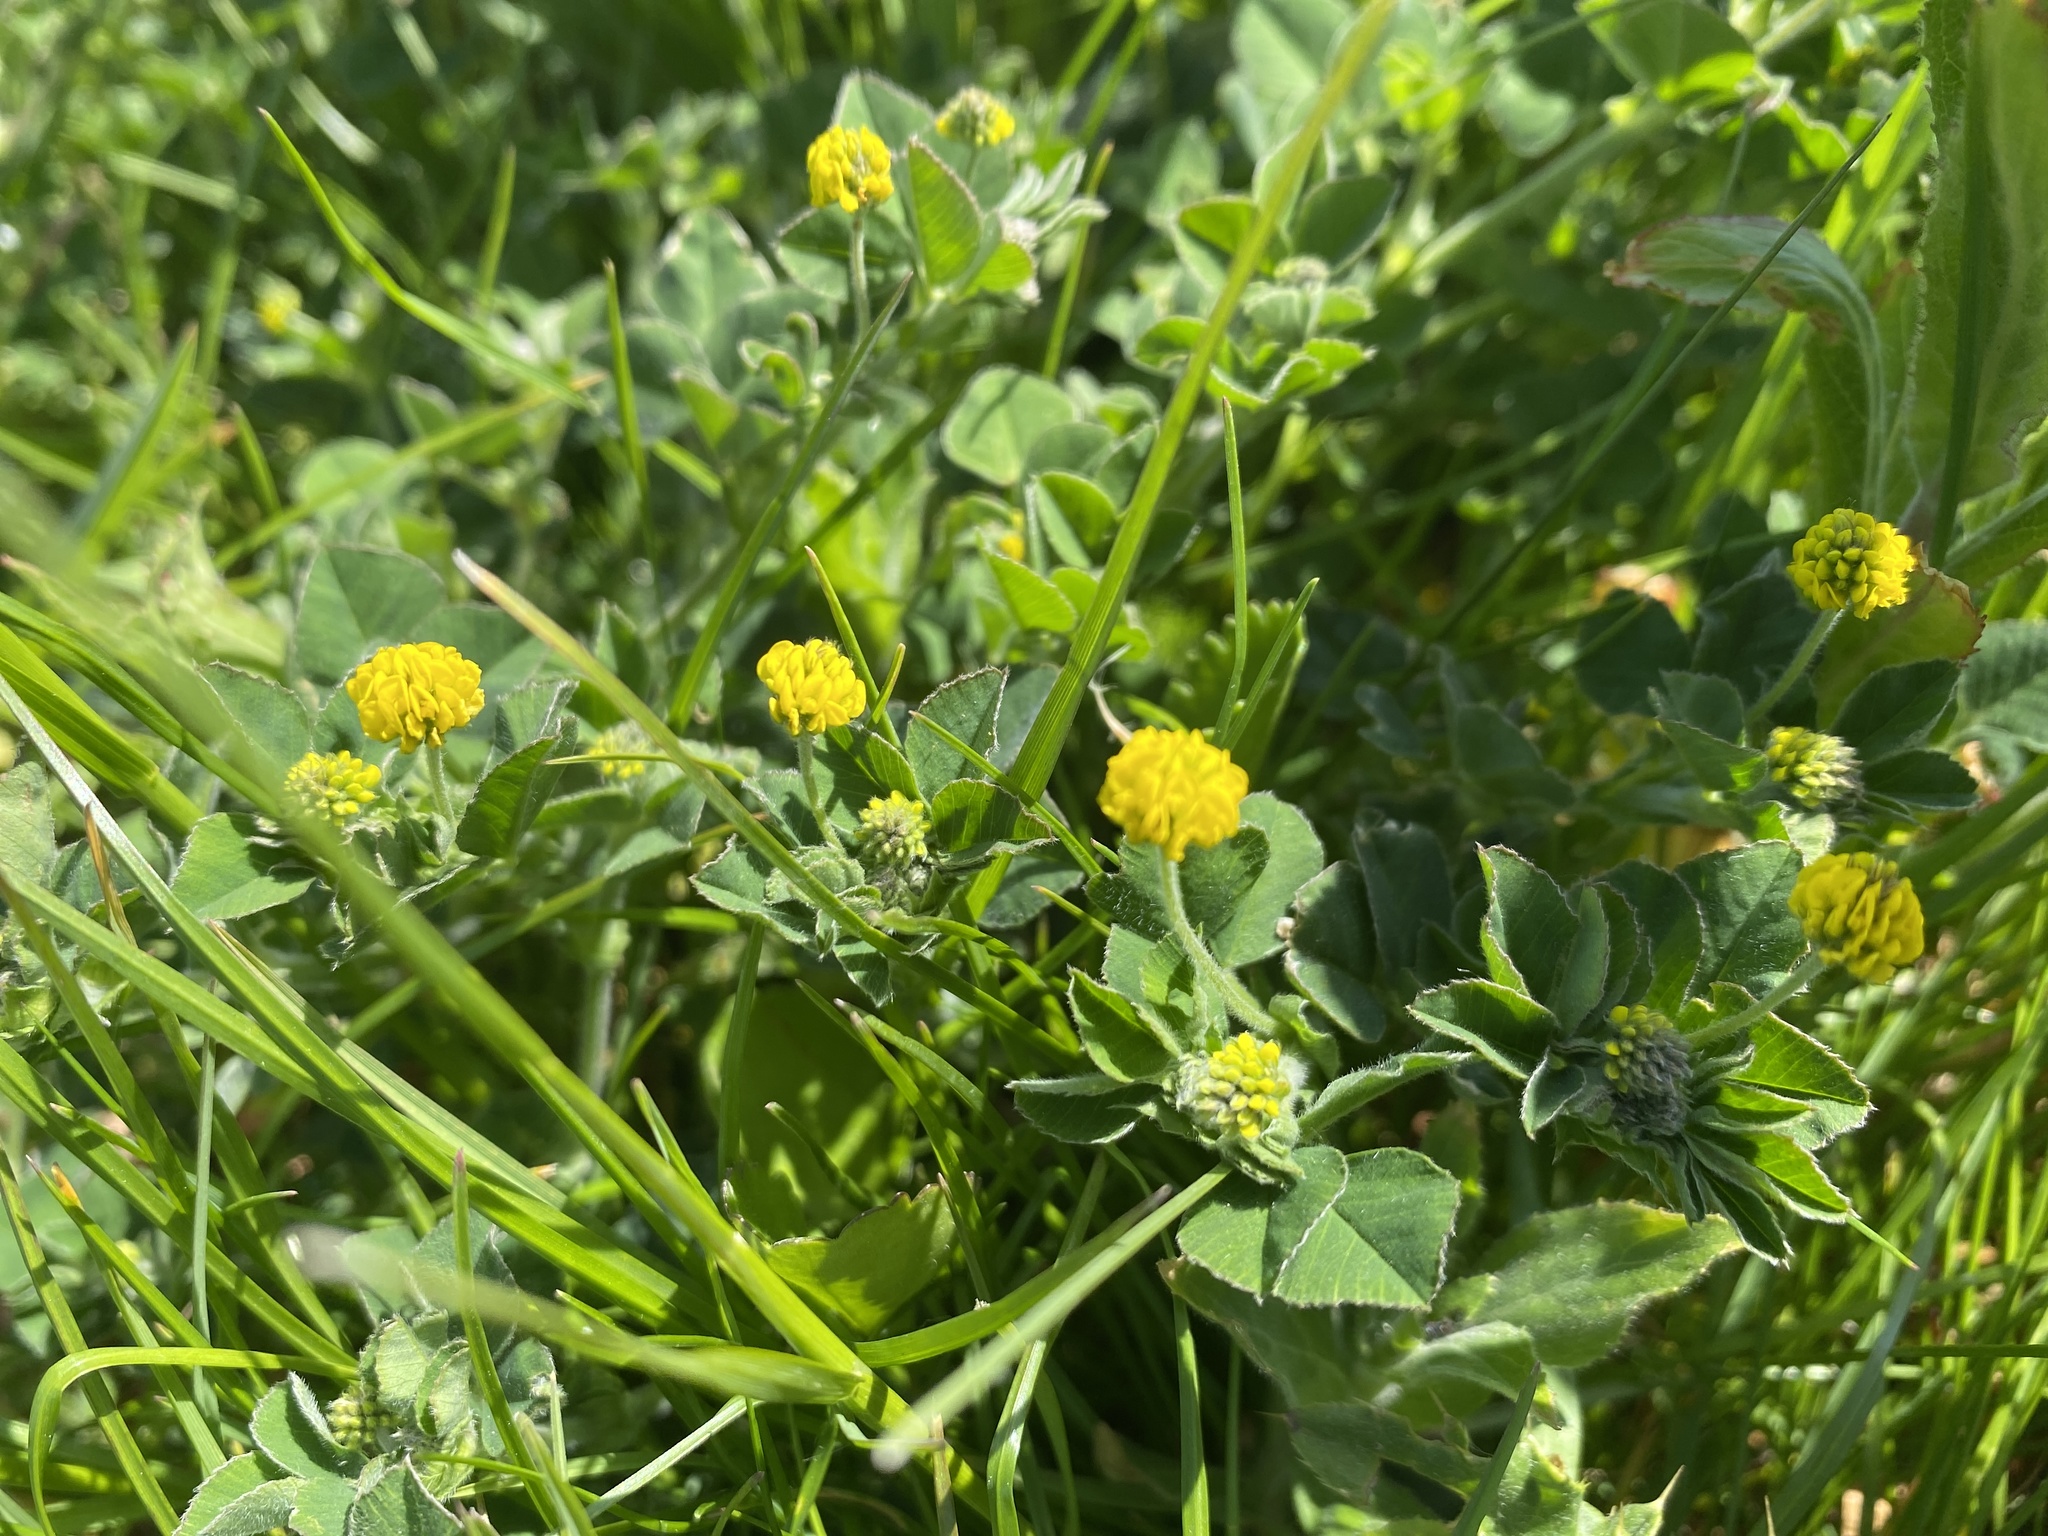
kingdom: Plantae
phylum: Tracheophyta
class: Magnoliopsida
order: Fabales
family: Fabaceae
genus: Medicago
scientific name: Medicago lupulina
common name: Black medick
